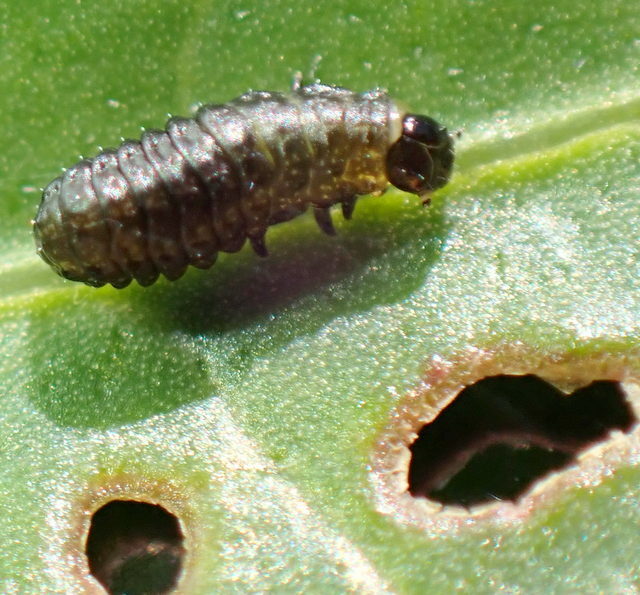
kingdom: Animalia
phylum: Arthropoda
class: Insecta
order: Coleoptera
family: Chrysomelidae
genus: Agasicles
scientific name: Agasicles hygrophila
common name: Alligatorweed flea beetle
